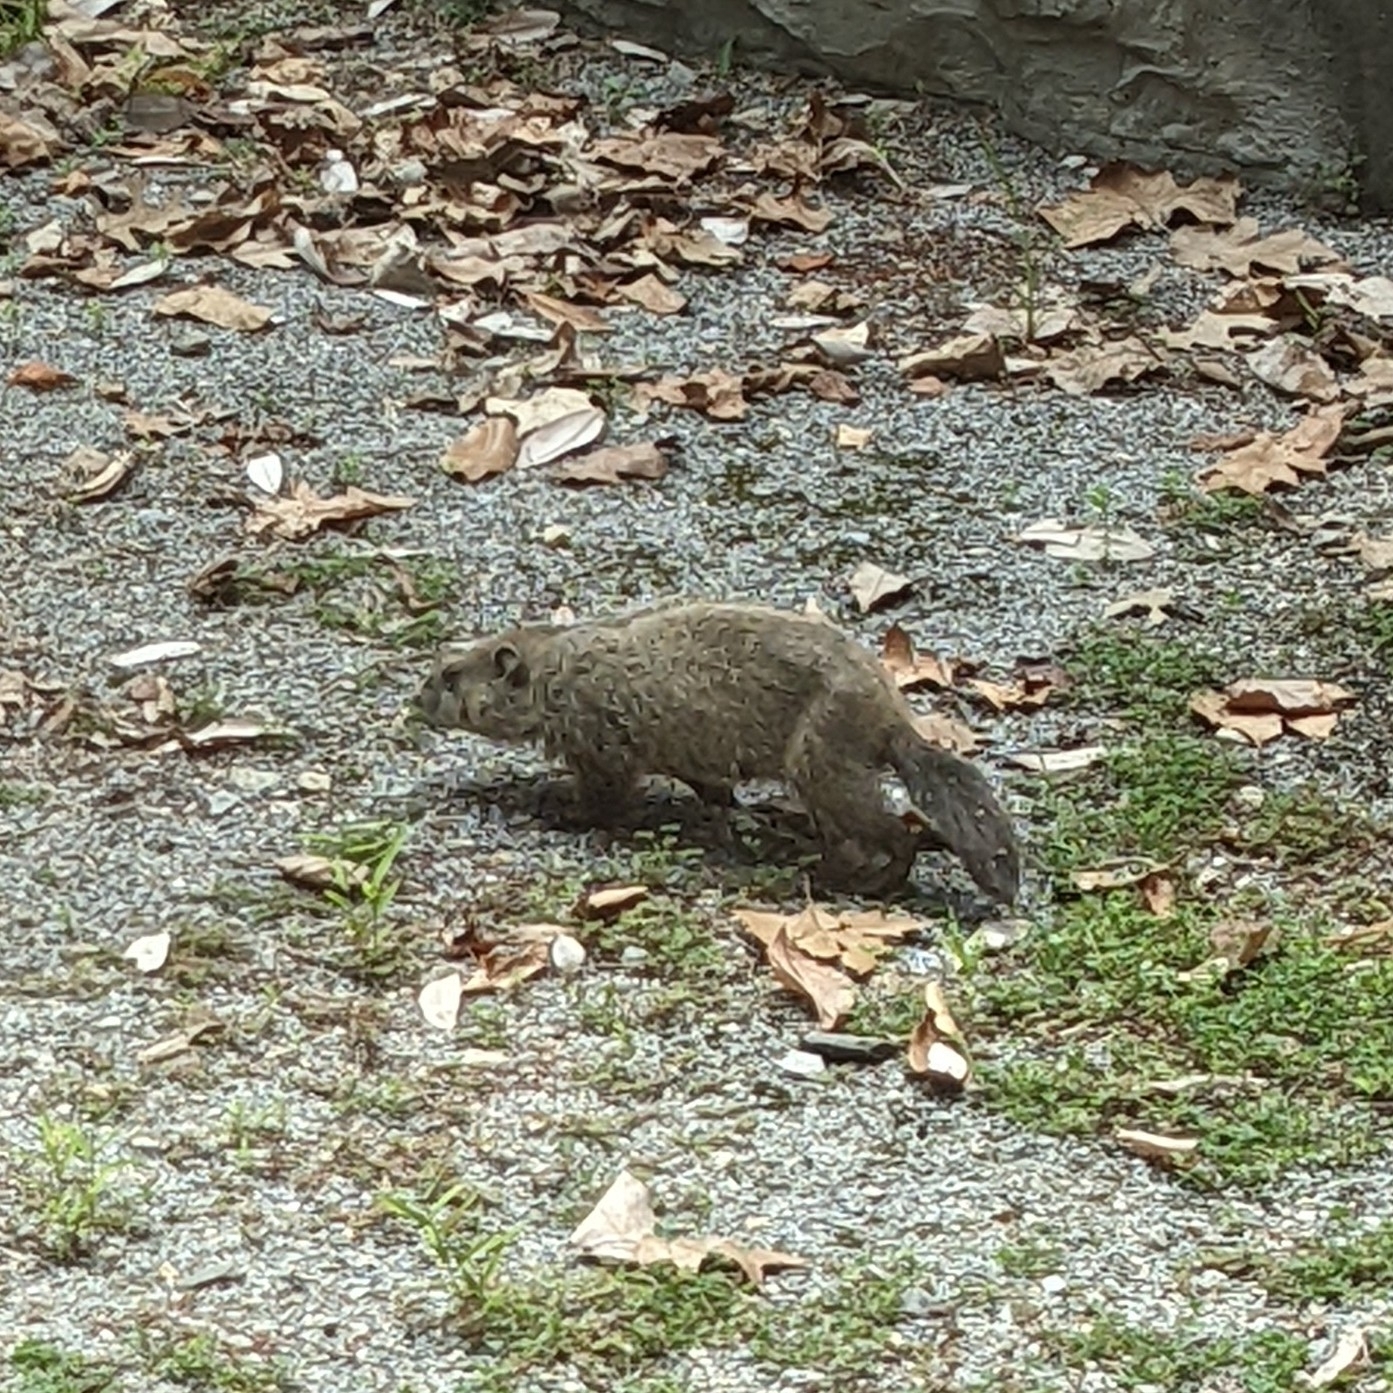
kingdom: Animalia
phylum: Chordata
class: Mammalia
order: Rodentia
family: Sciuridae
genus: Marmota
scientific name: Marmota monax
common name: Groundhog
